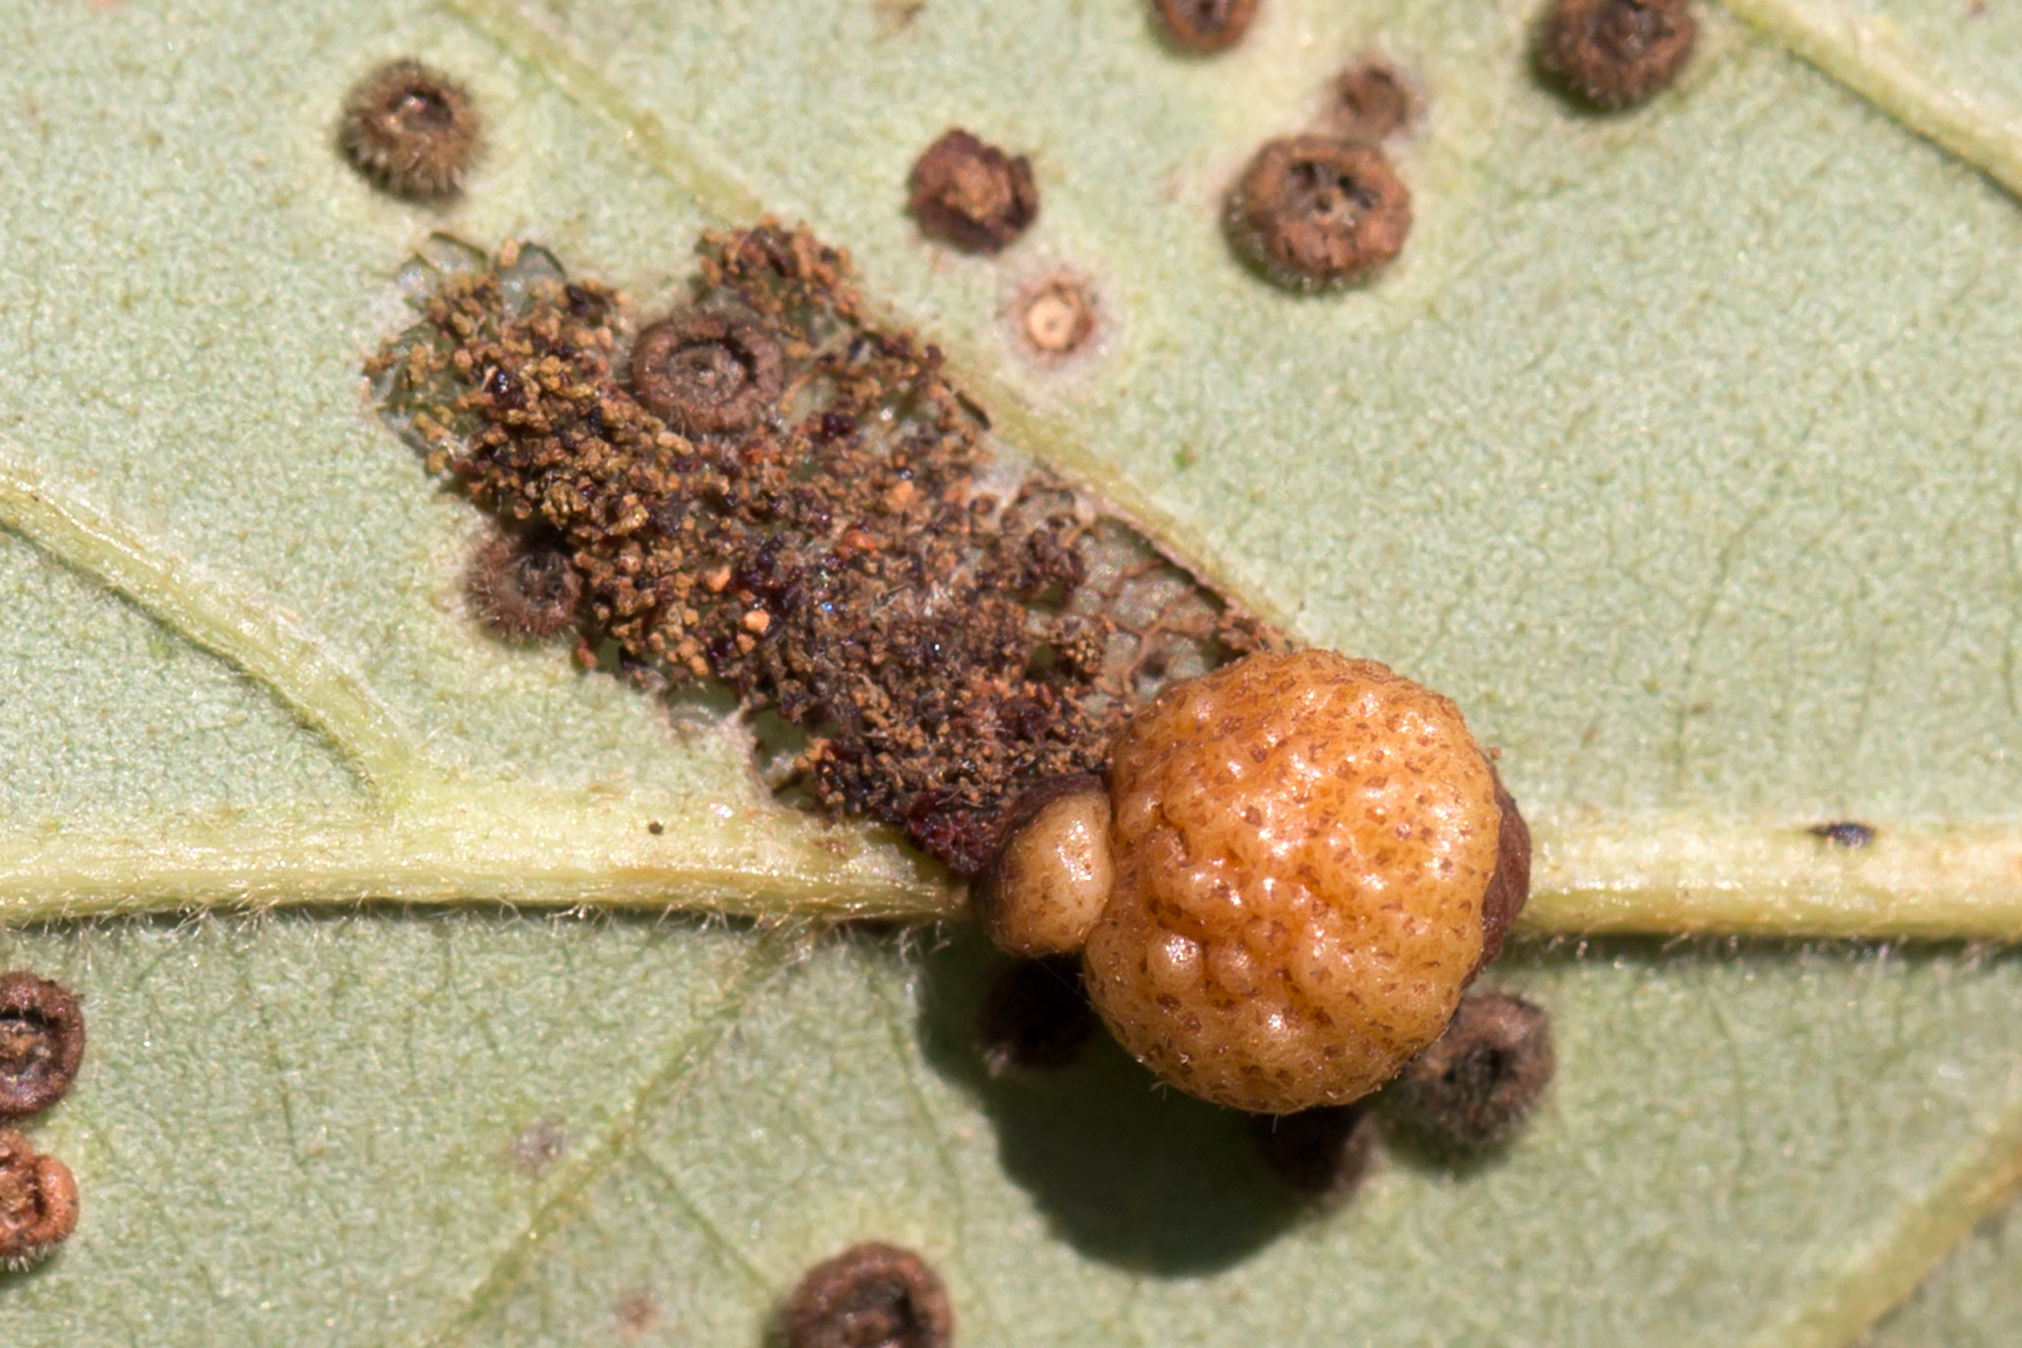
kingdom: Animalia
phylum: Arthropoda
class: Insecta
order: Hymenoptera
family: Cynipidae
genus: Andricus
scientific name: Andricus
